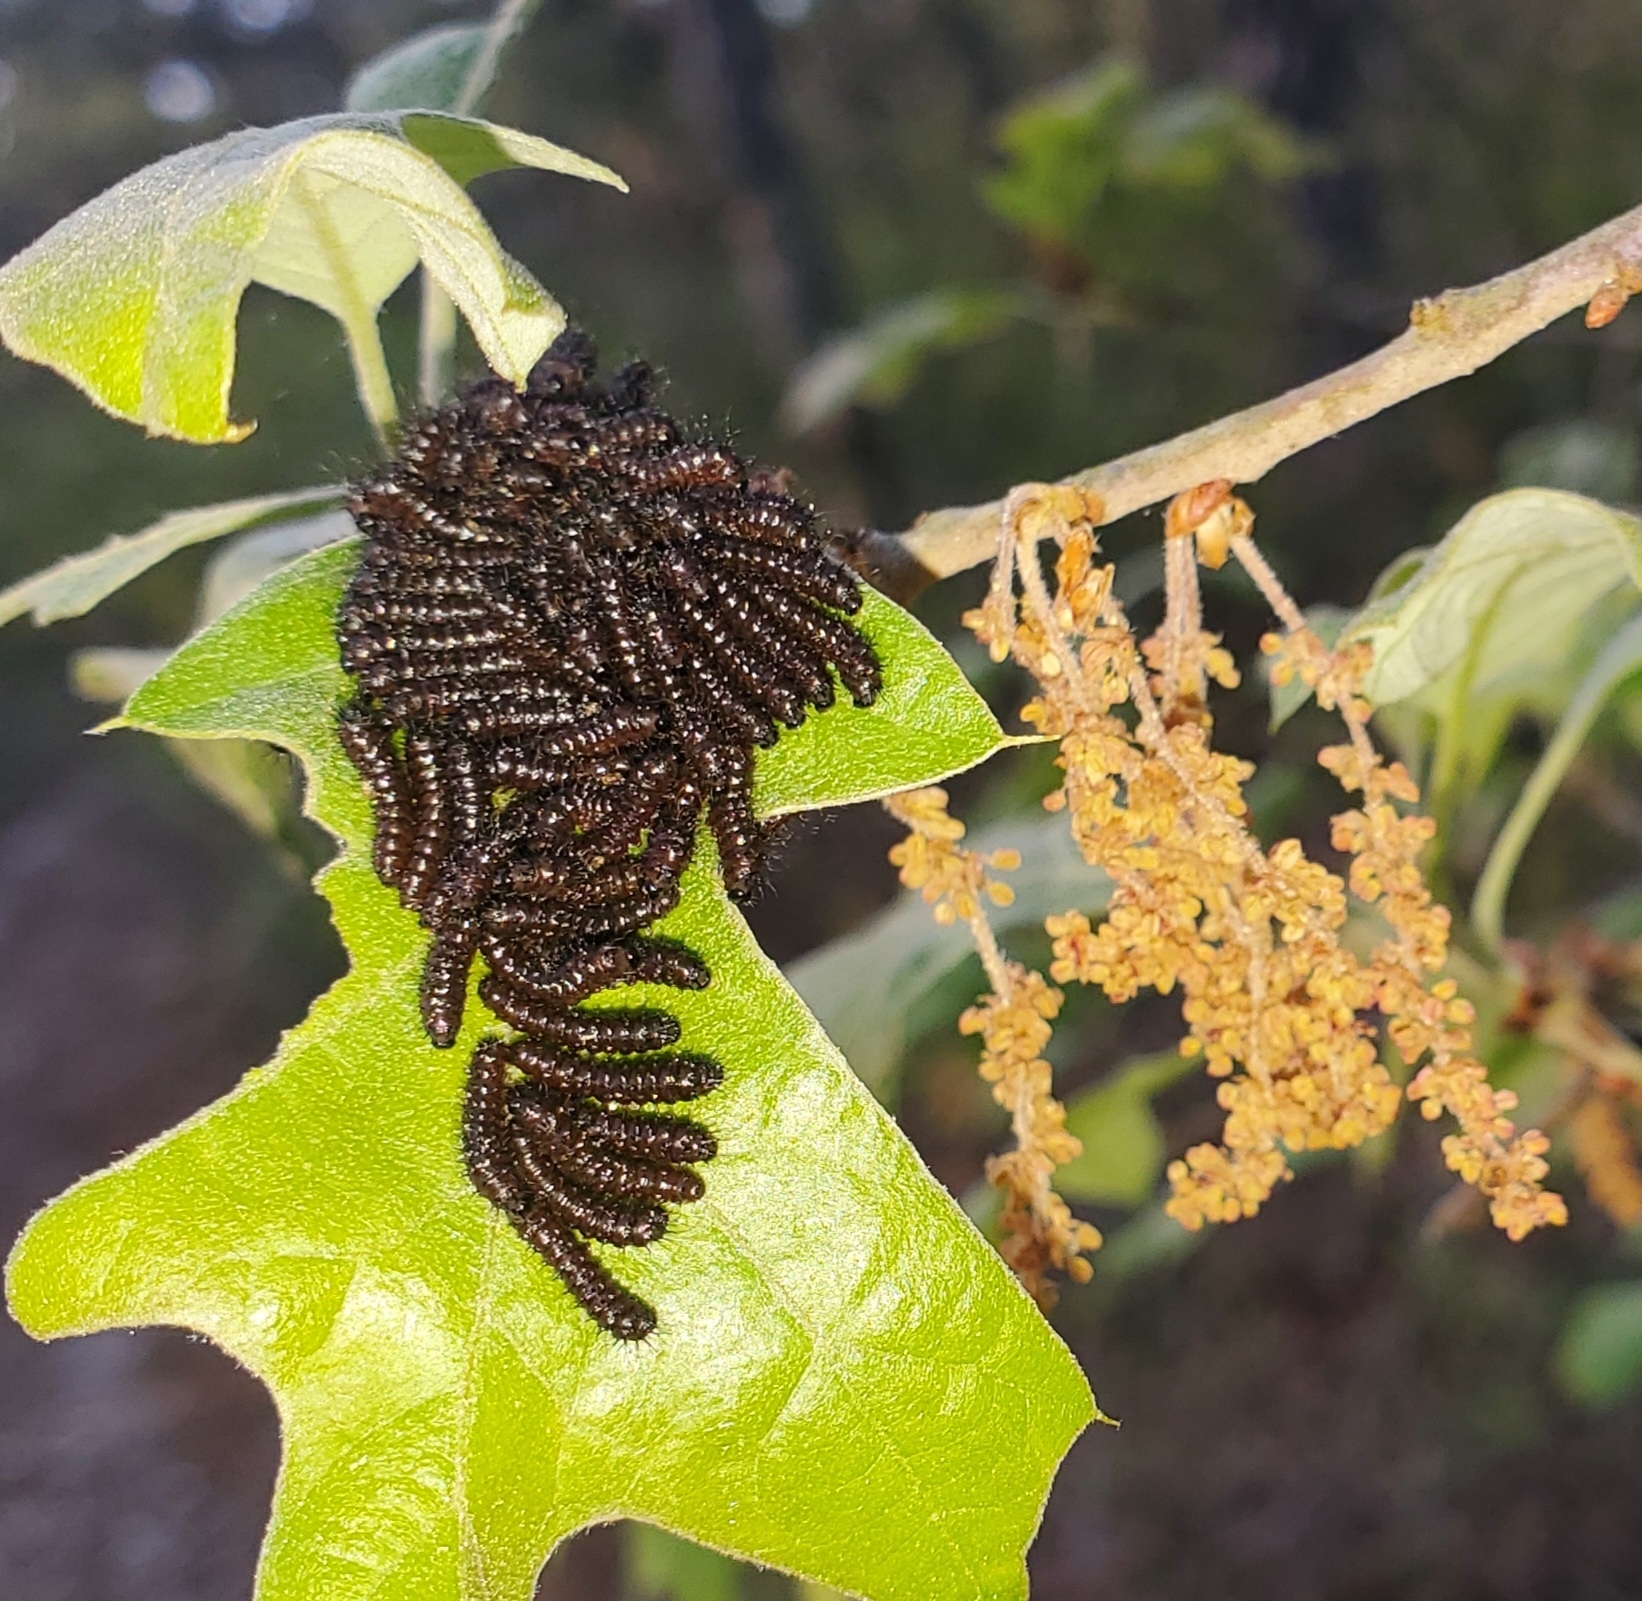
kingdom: Animalia
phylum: Arthropoda
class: Insecta
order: Lepidoptera
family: Saturniidae
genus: Hemileuca
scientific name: Hemileuca maia
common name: Eastern buckmoth
